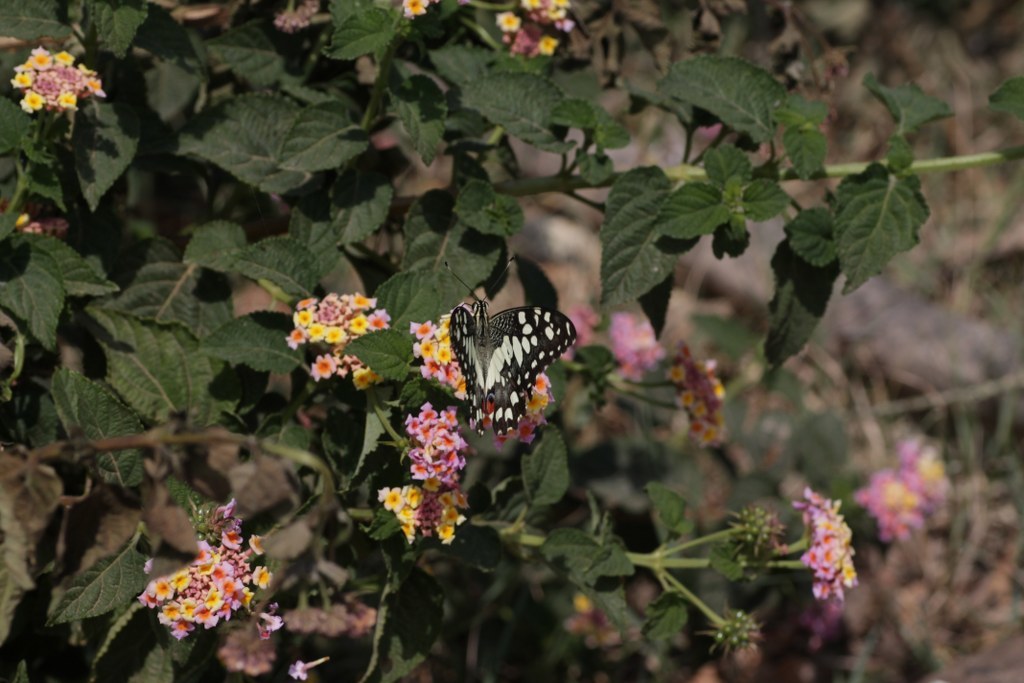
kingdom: Animalia
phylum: Arthropoda
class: Insecta
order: Lepidoptera
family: Papilionidae
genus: Papilio
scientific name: Papilio demoleus
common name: Lime butterfly
